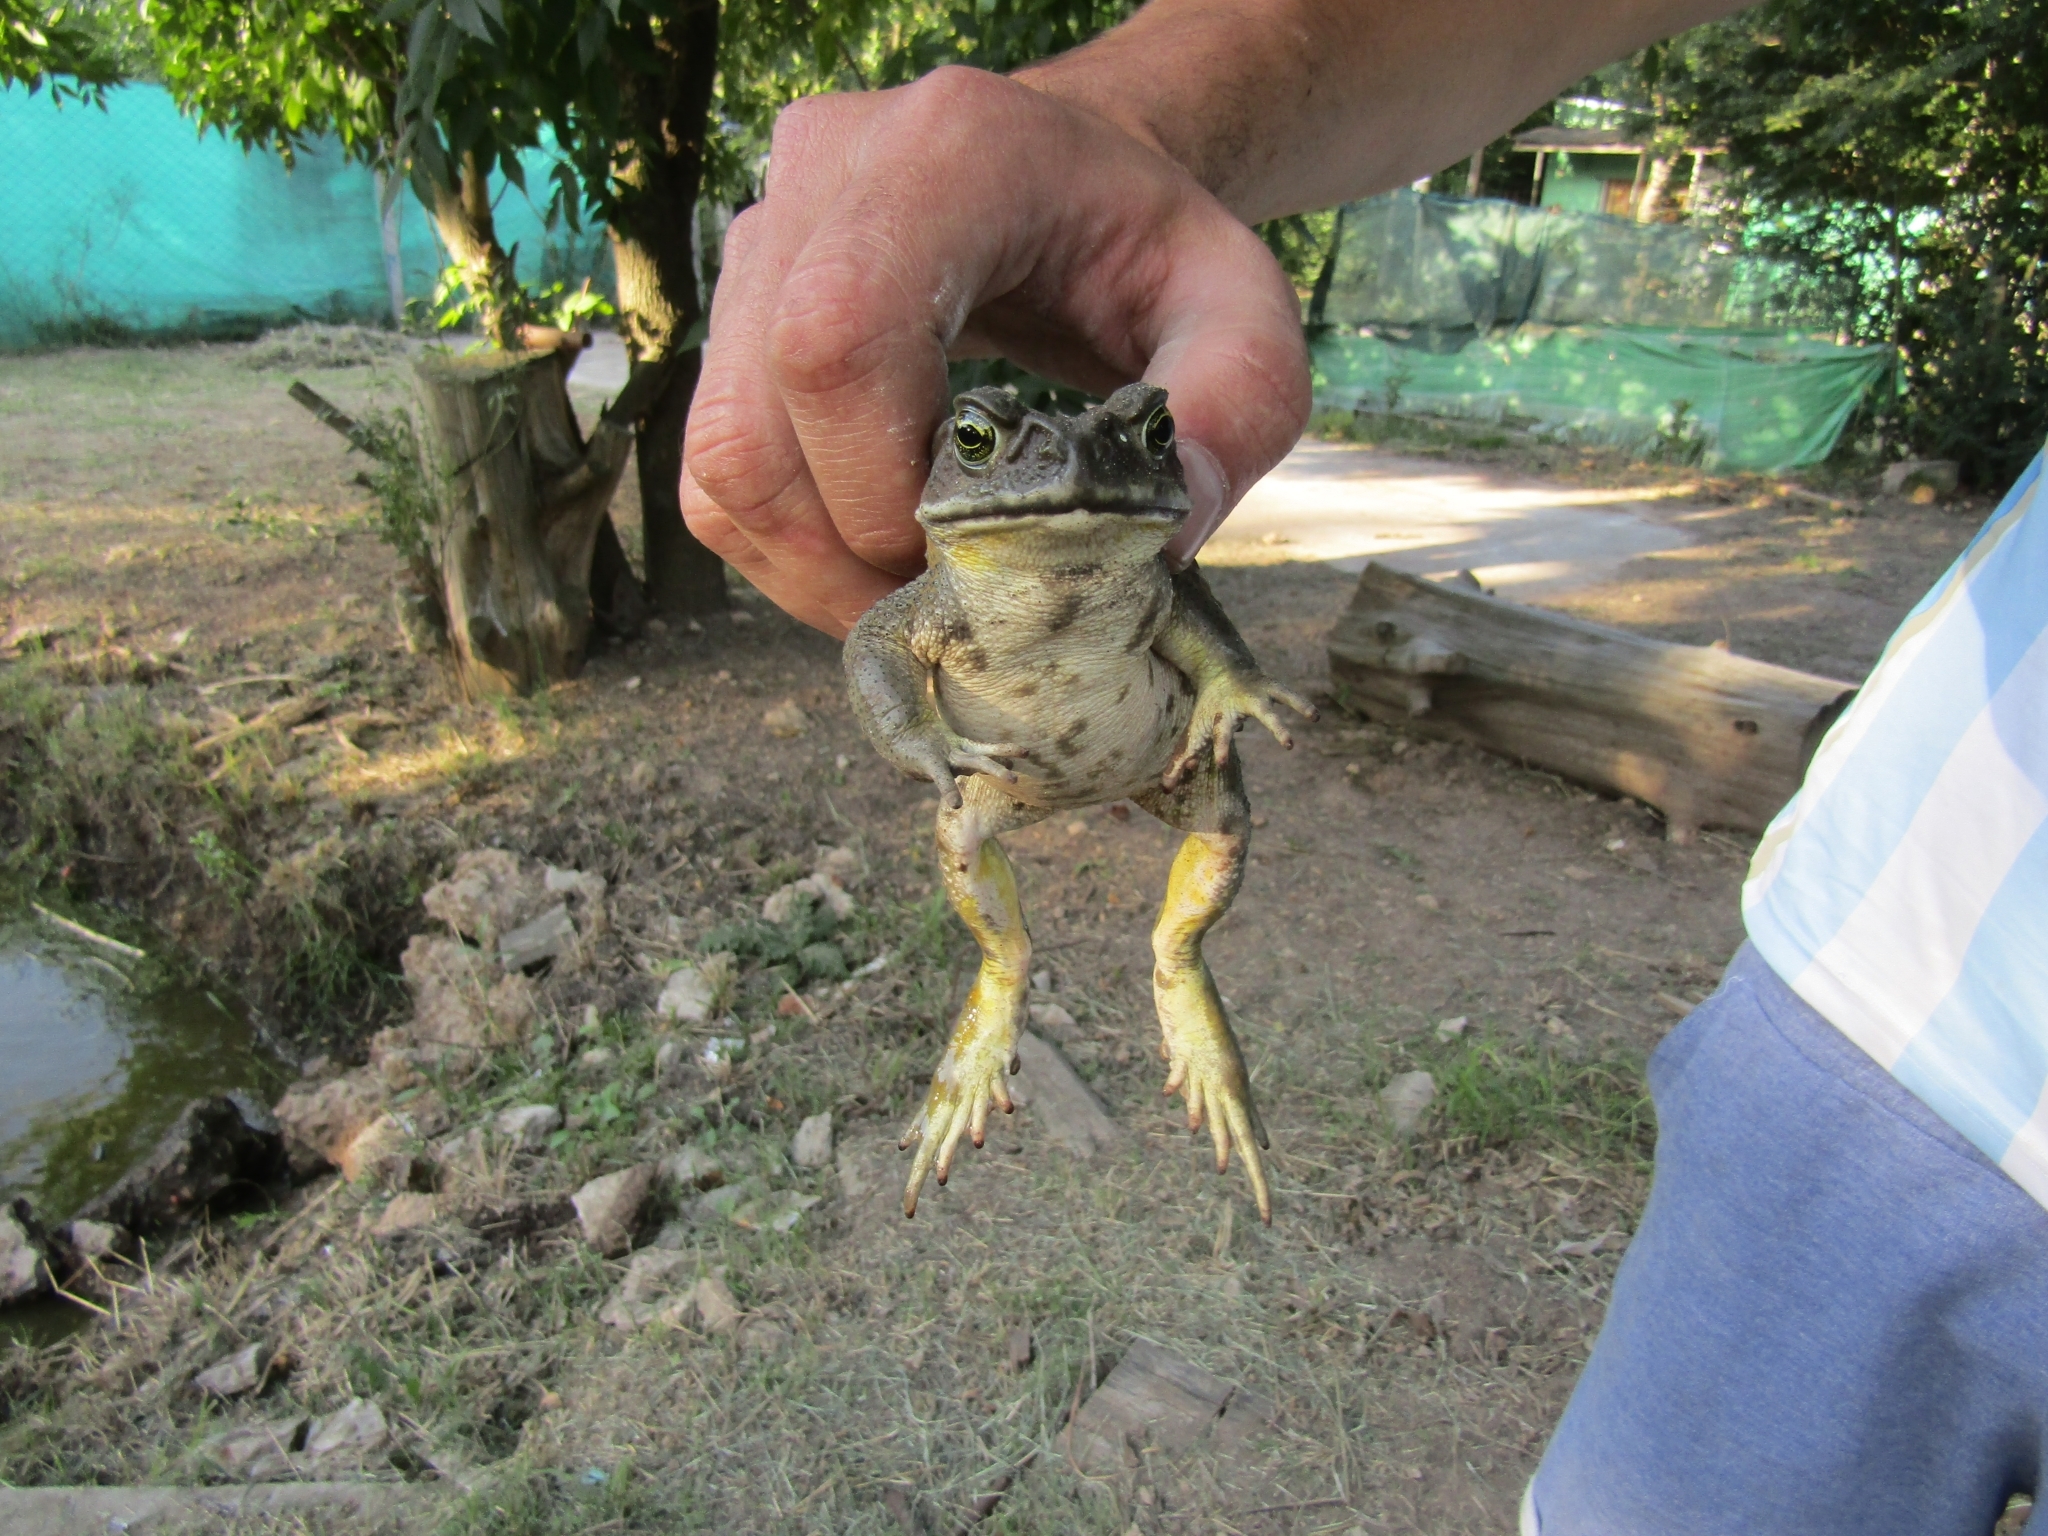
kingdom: Animalia
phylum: Chordata
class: Amphibia
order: Anura
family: Bufonidae
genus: Rhinella
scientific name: Rhinella arenarum
